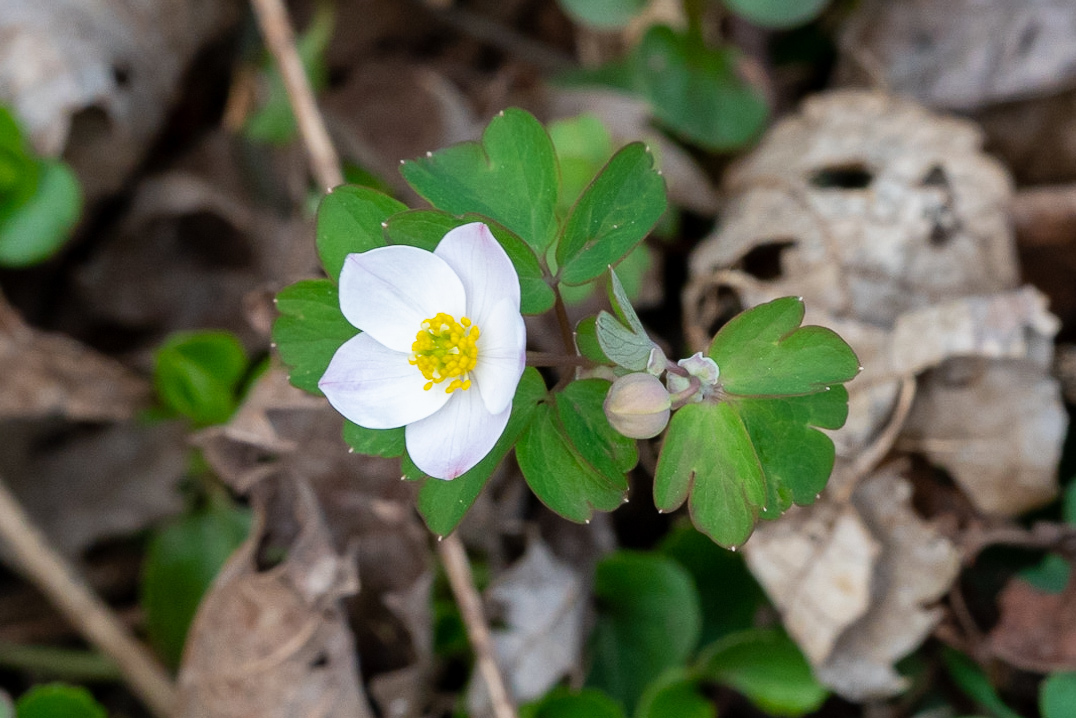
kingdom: Plantae
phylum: Tracheophyta
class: Magnoliopsida
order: Ranunculales
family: Ranunculaceae
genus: Enemion
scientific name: Enemion biternatum
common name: Eastern false rue-anemone
